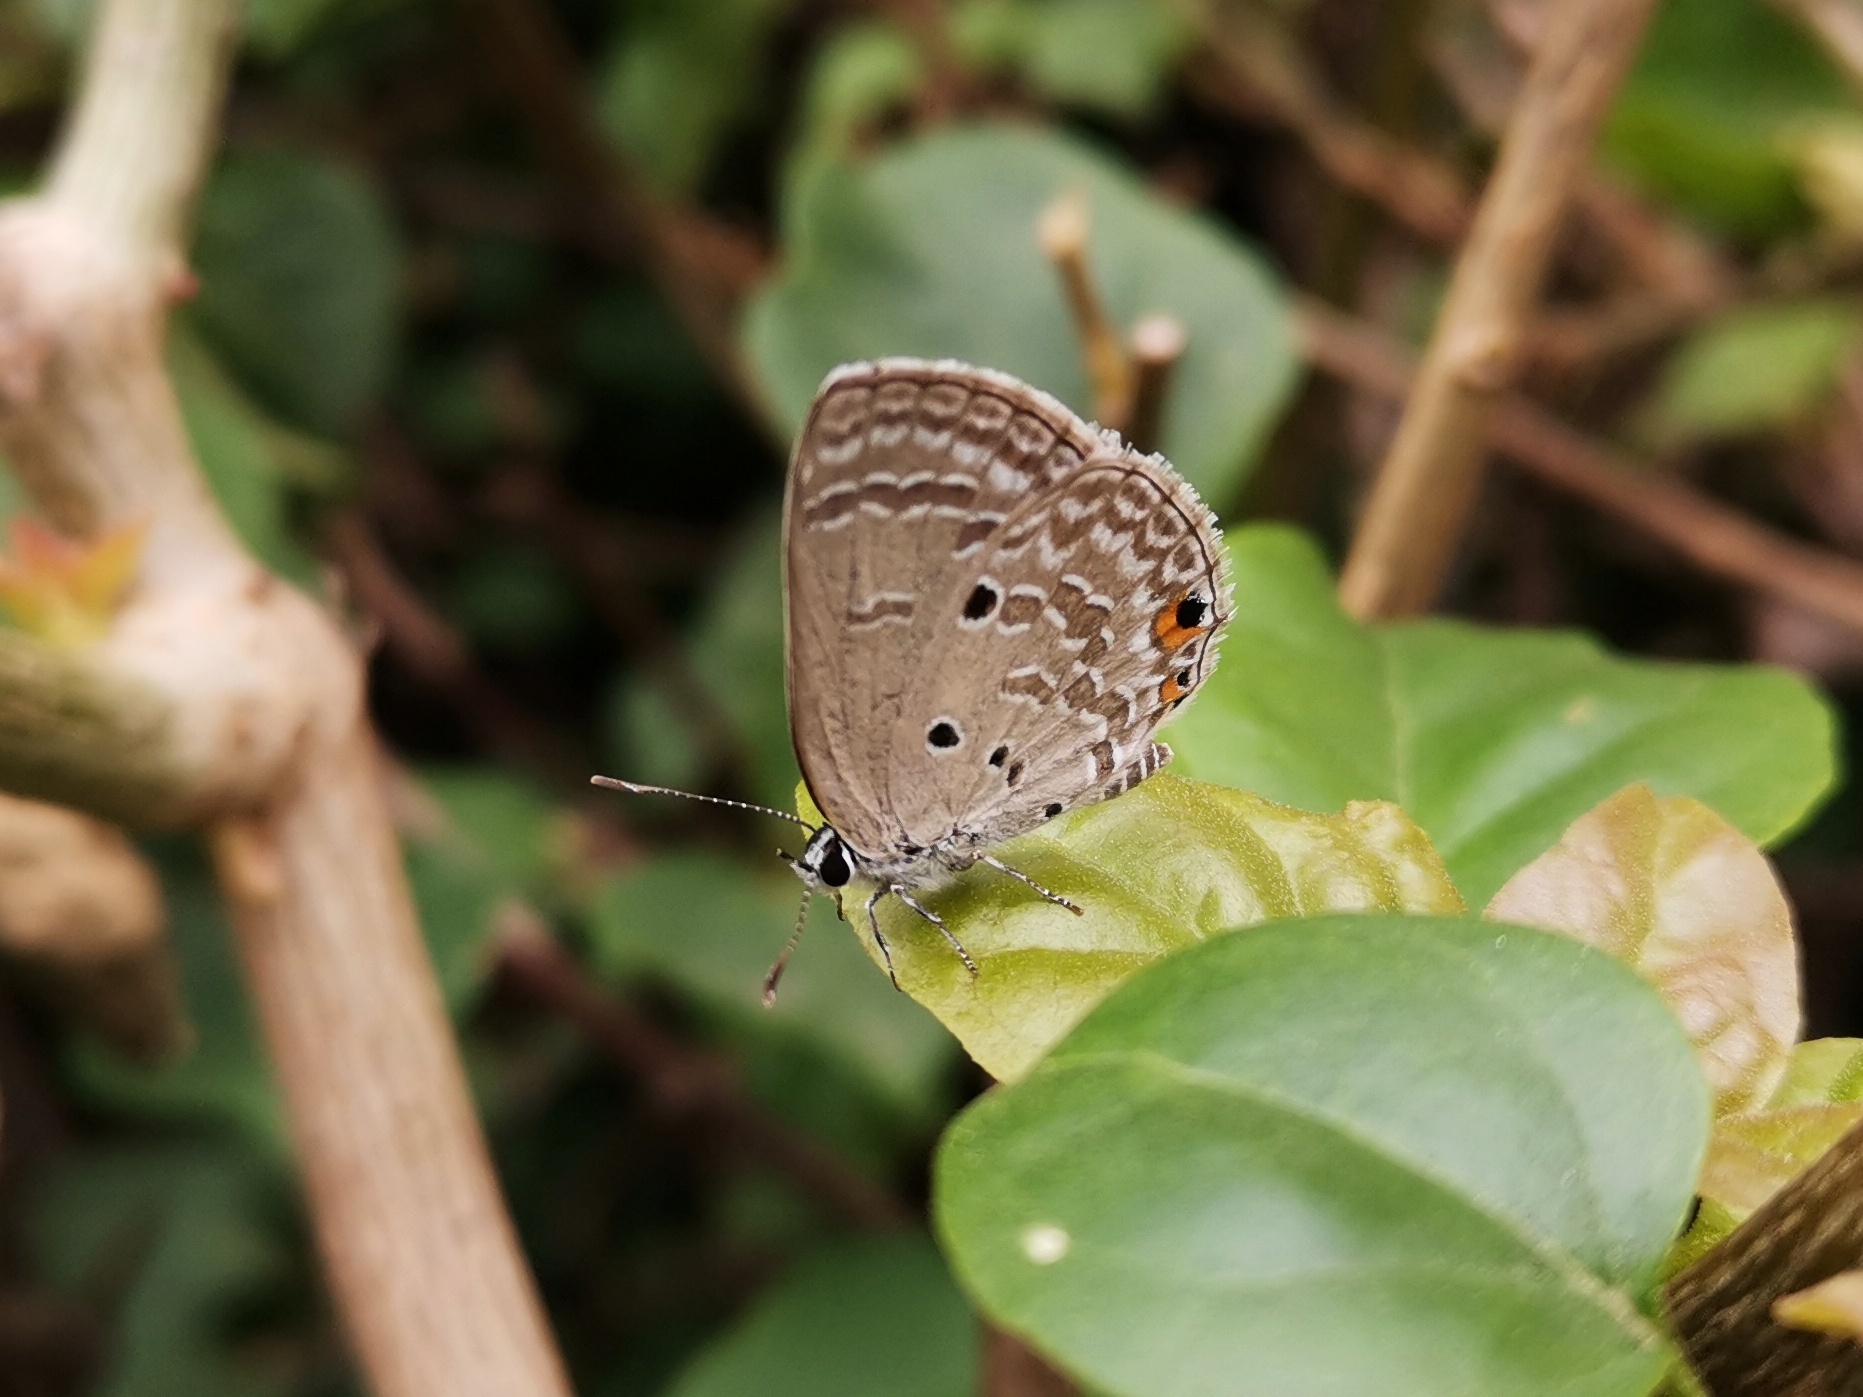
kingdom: Animalia
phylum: Arthropoda
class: Insecta
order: Lepidoptera
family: Lycaenidae
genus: Luthrodes
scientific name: Luthrodes pandava
